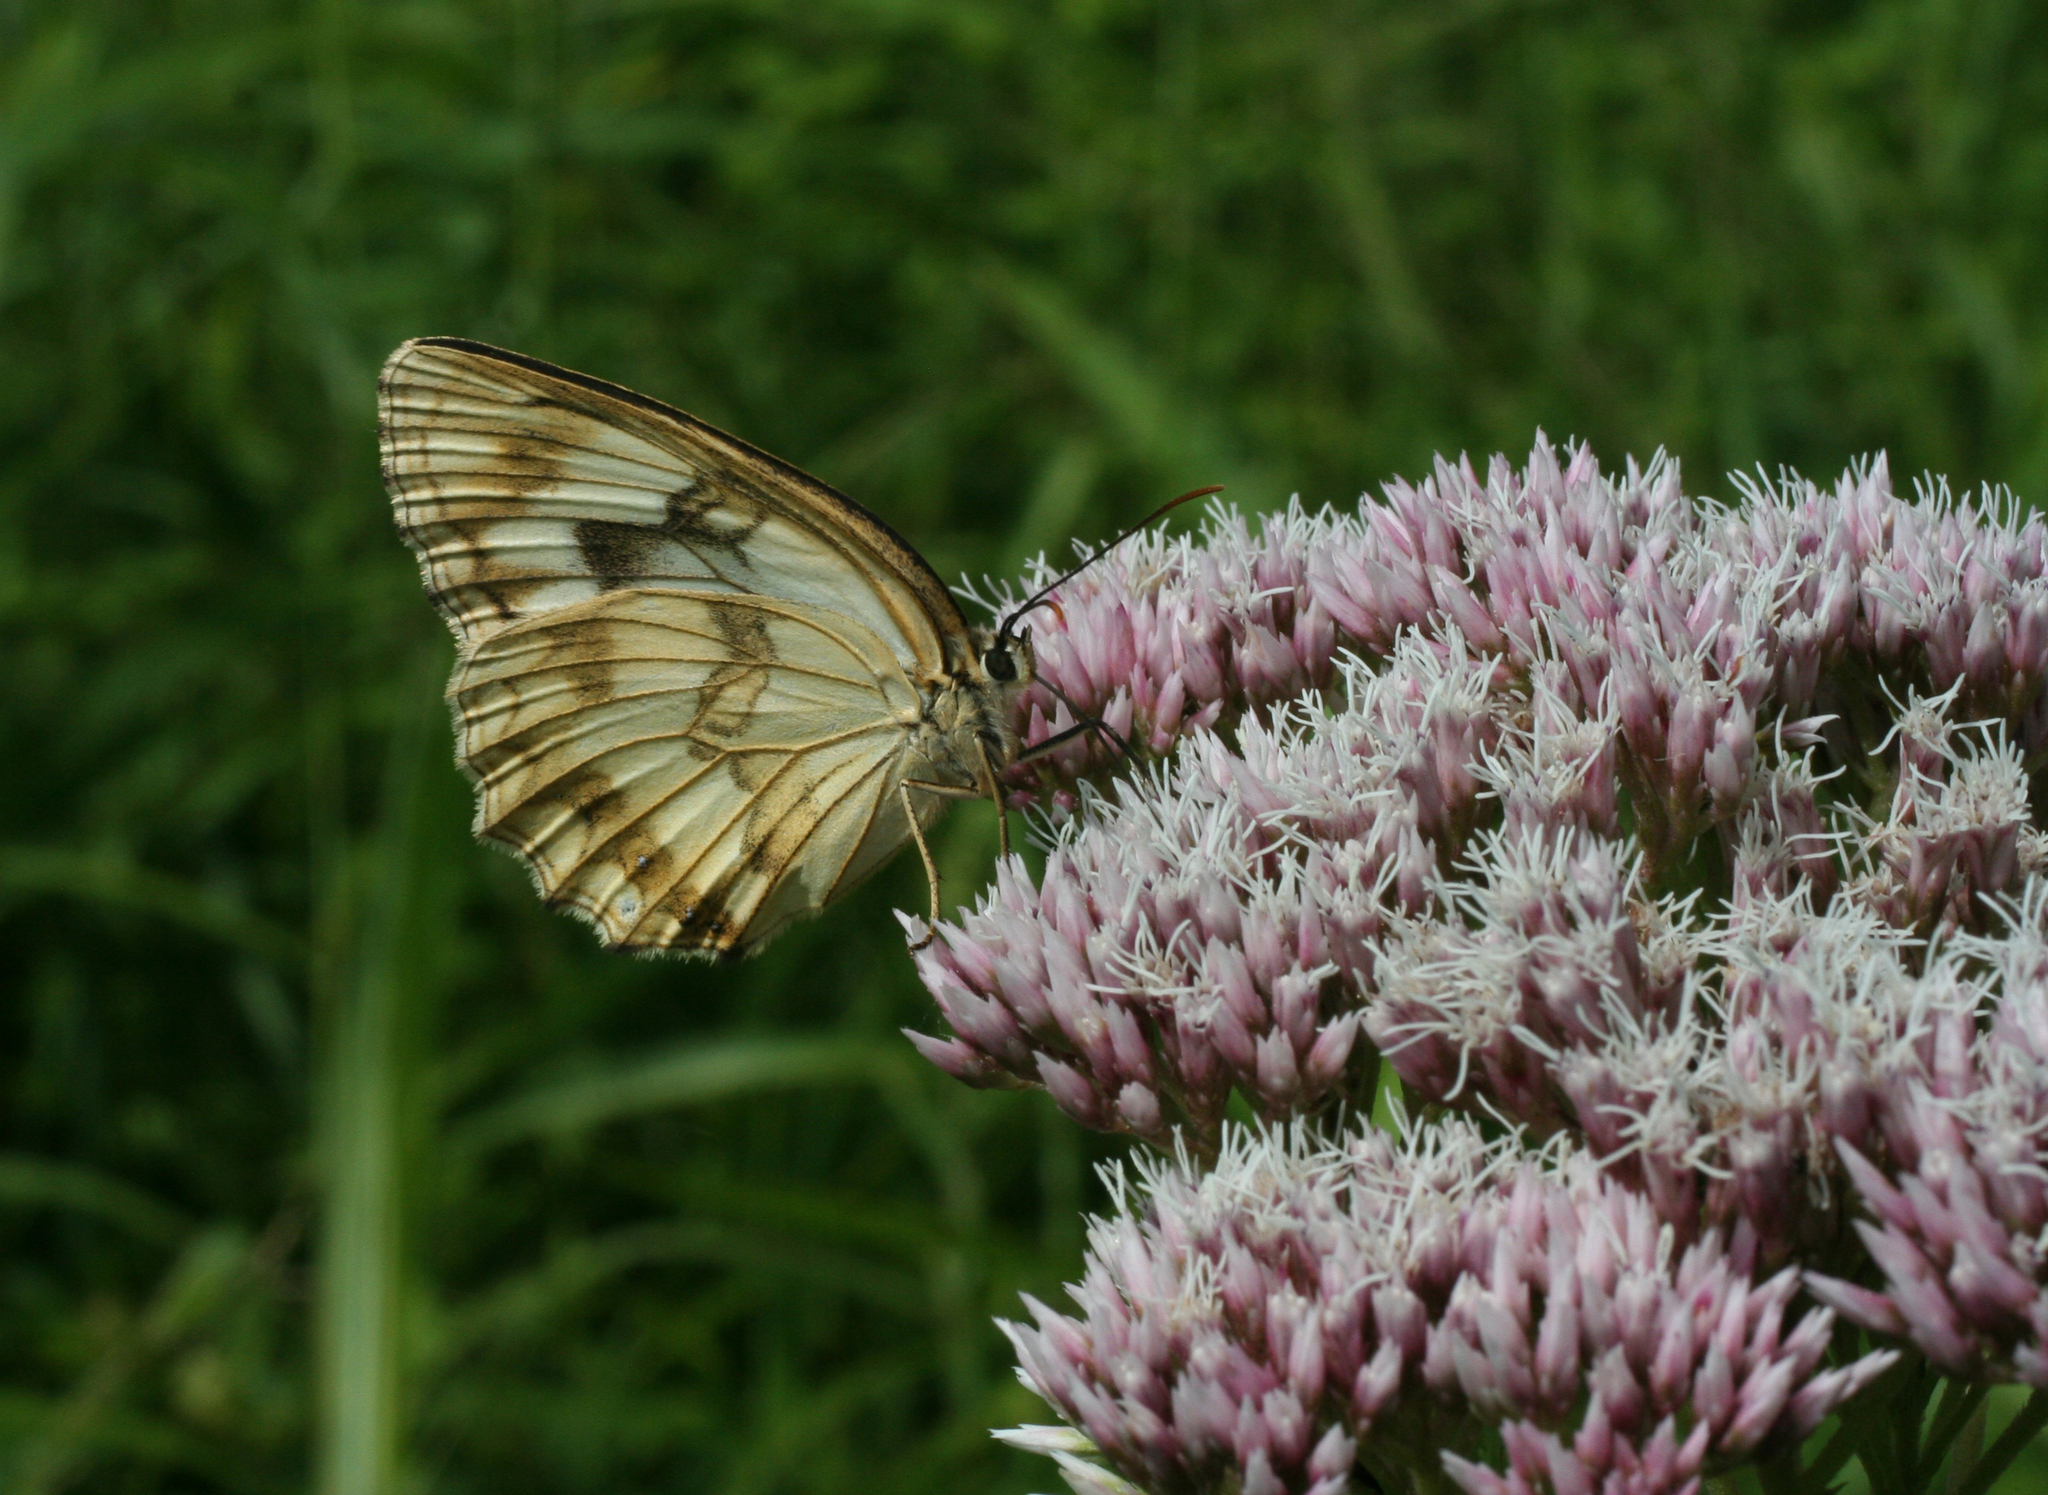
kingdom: Animalia
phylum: Arthropoda
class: Insecta
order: Lepidoptera
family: Nymphalidae
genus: Melanargia
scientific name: Melanargia halimede
